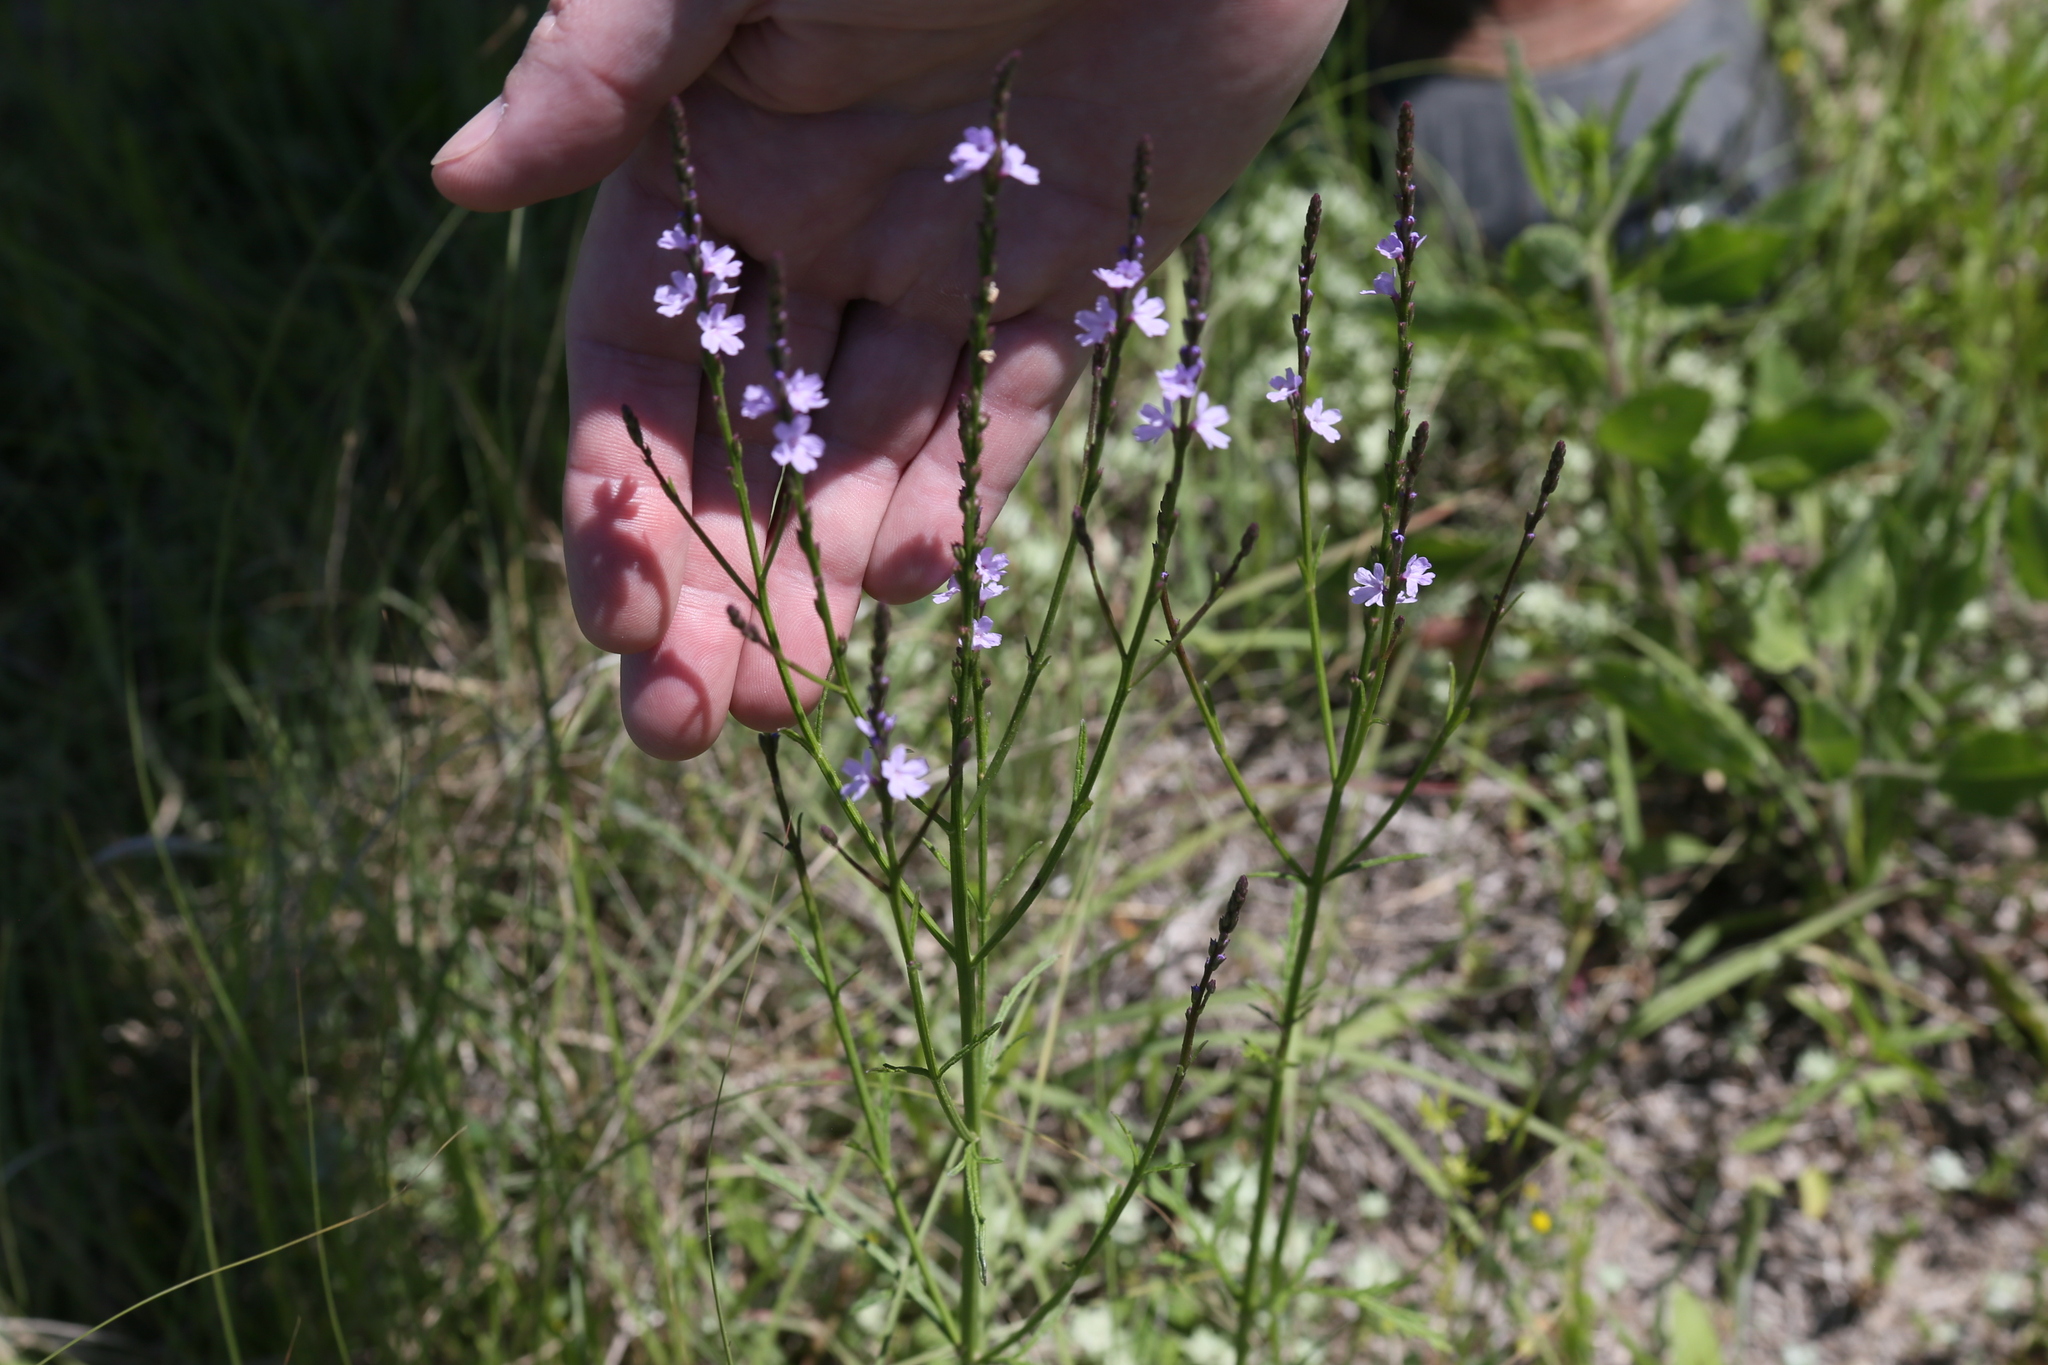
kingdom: Plantae
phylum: Tracheophyta
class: Magnoliopsida
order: Lamiales
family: Verbenaceae
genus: Verbena
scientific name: Verbena halei
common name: Texas vervain
